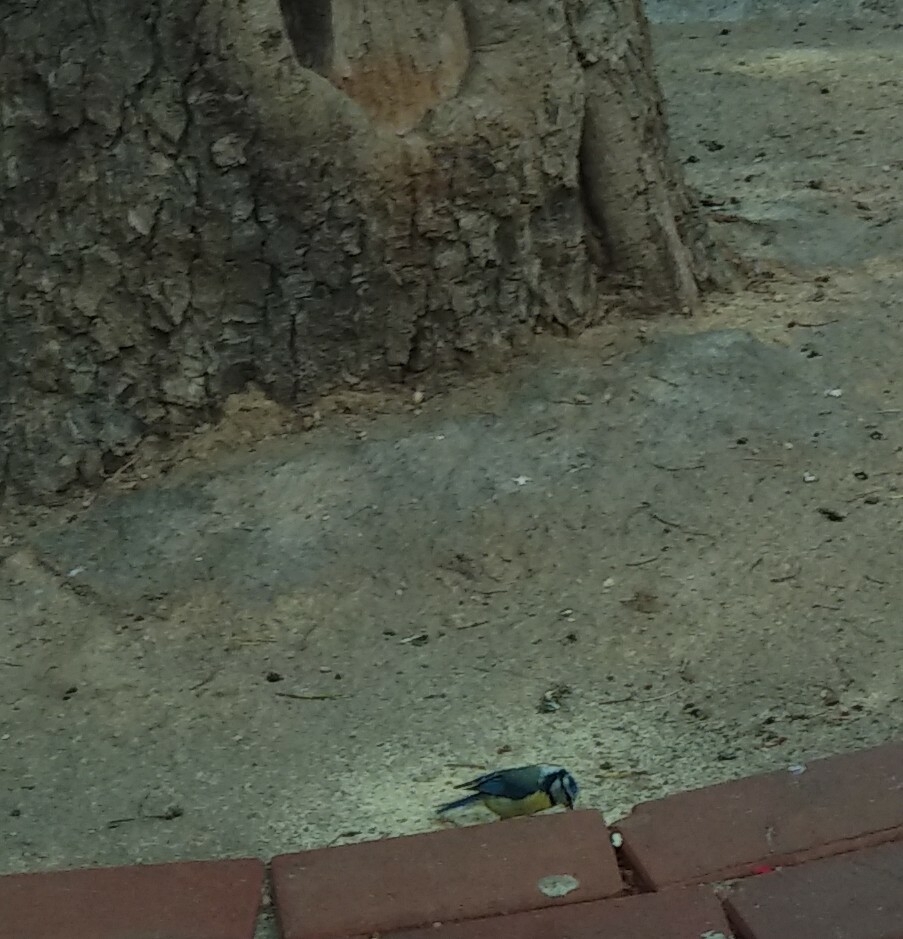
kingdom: Animalia
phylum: Chordata
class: Aves
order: Passeriformes
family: Paridae
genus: Cyanistes
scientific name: Cyanistes caeruleus
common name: Eurasian blue tit
